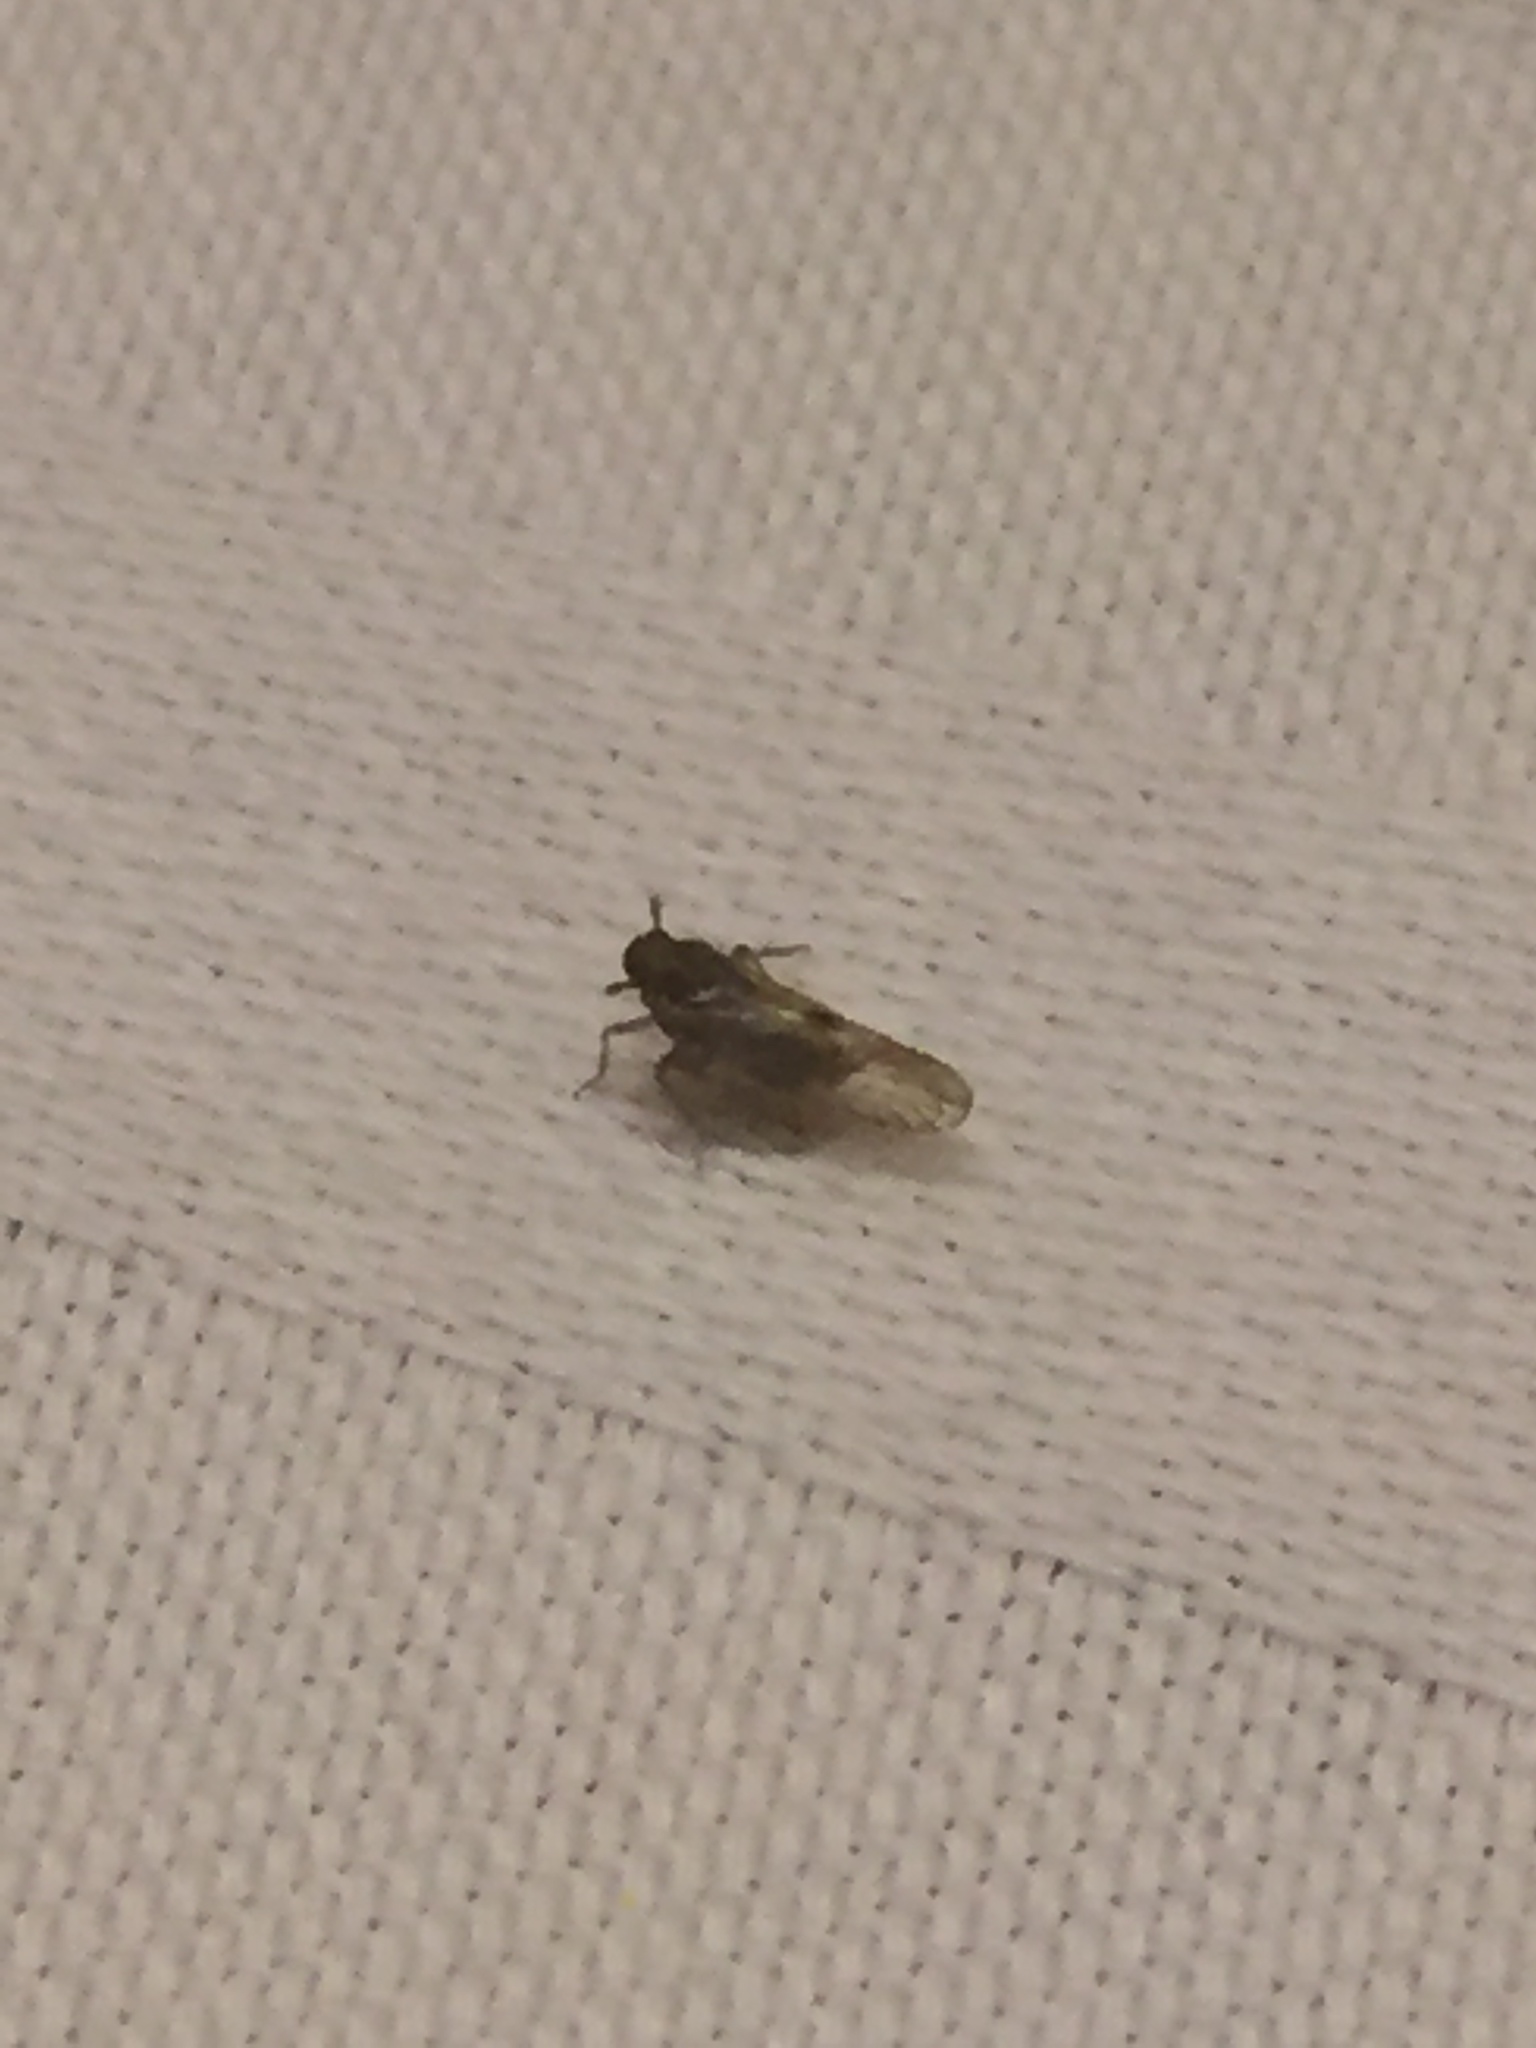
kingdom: Animalia
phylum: Arthropoda
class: Insecta
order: Hemiptera
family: Delphacidae
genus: Nilaparvata
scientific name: Nilaparvata lugens
